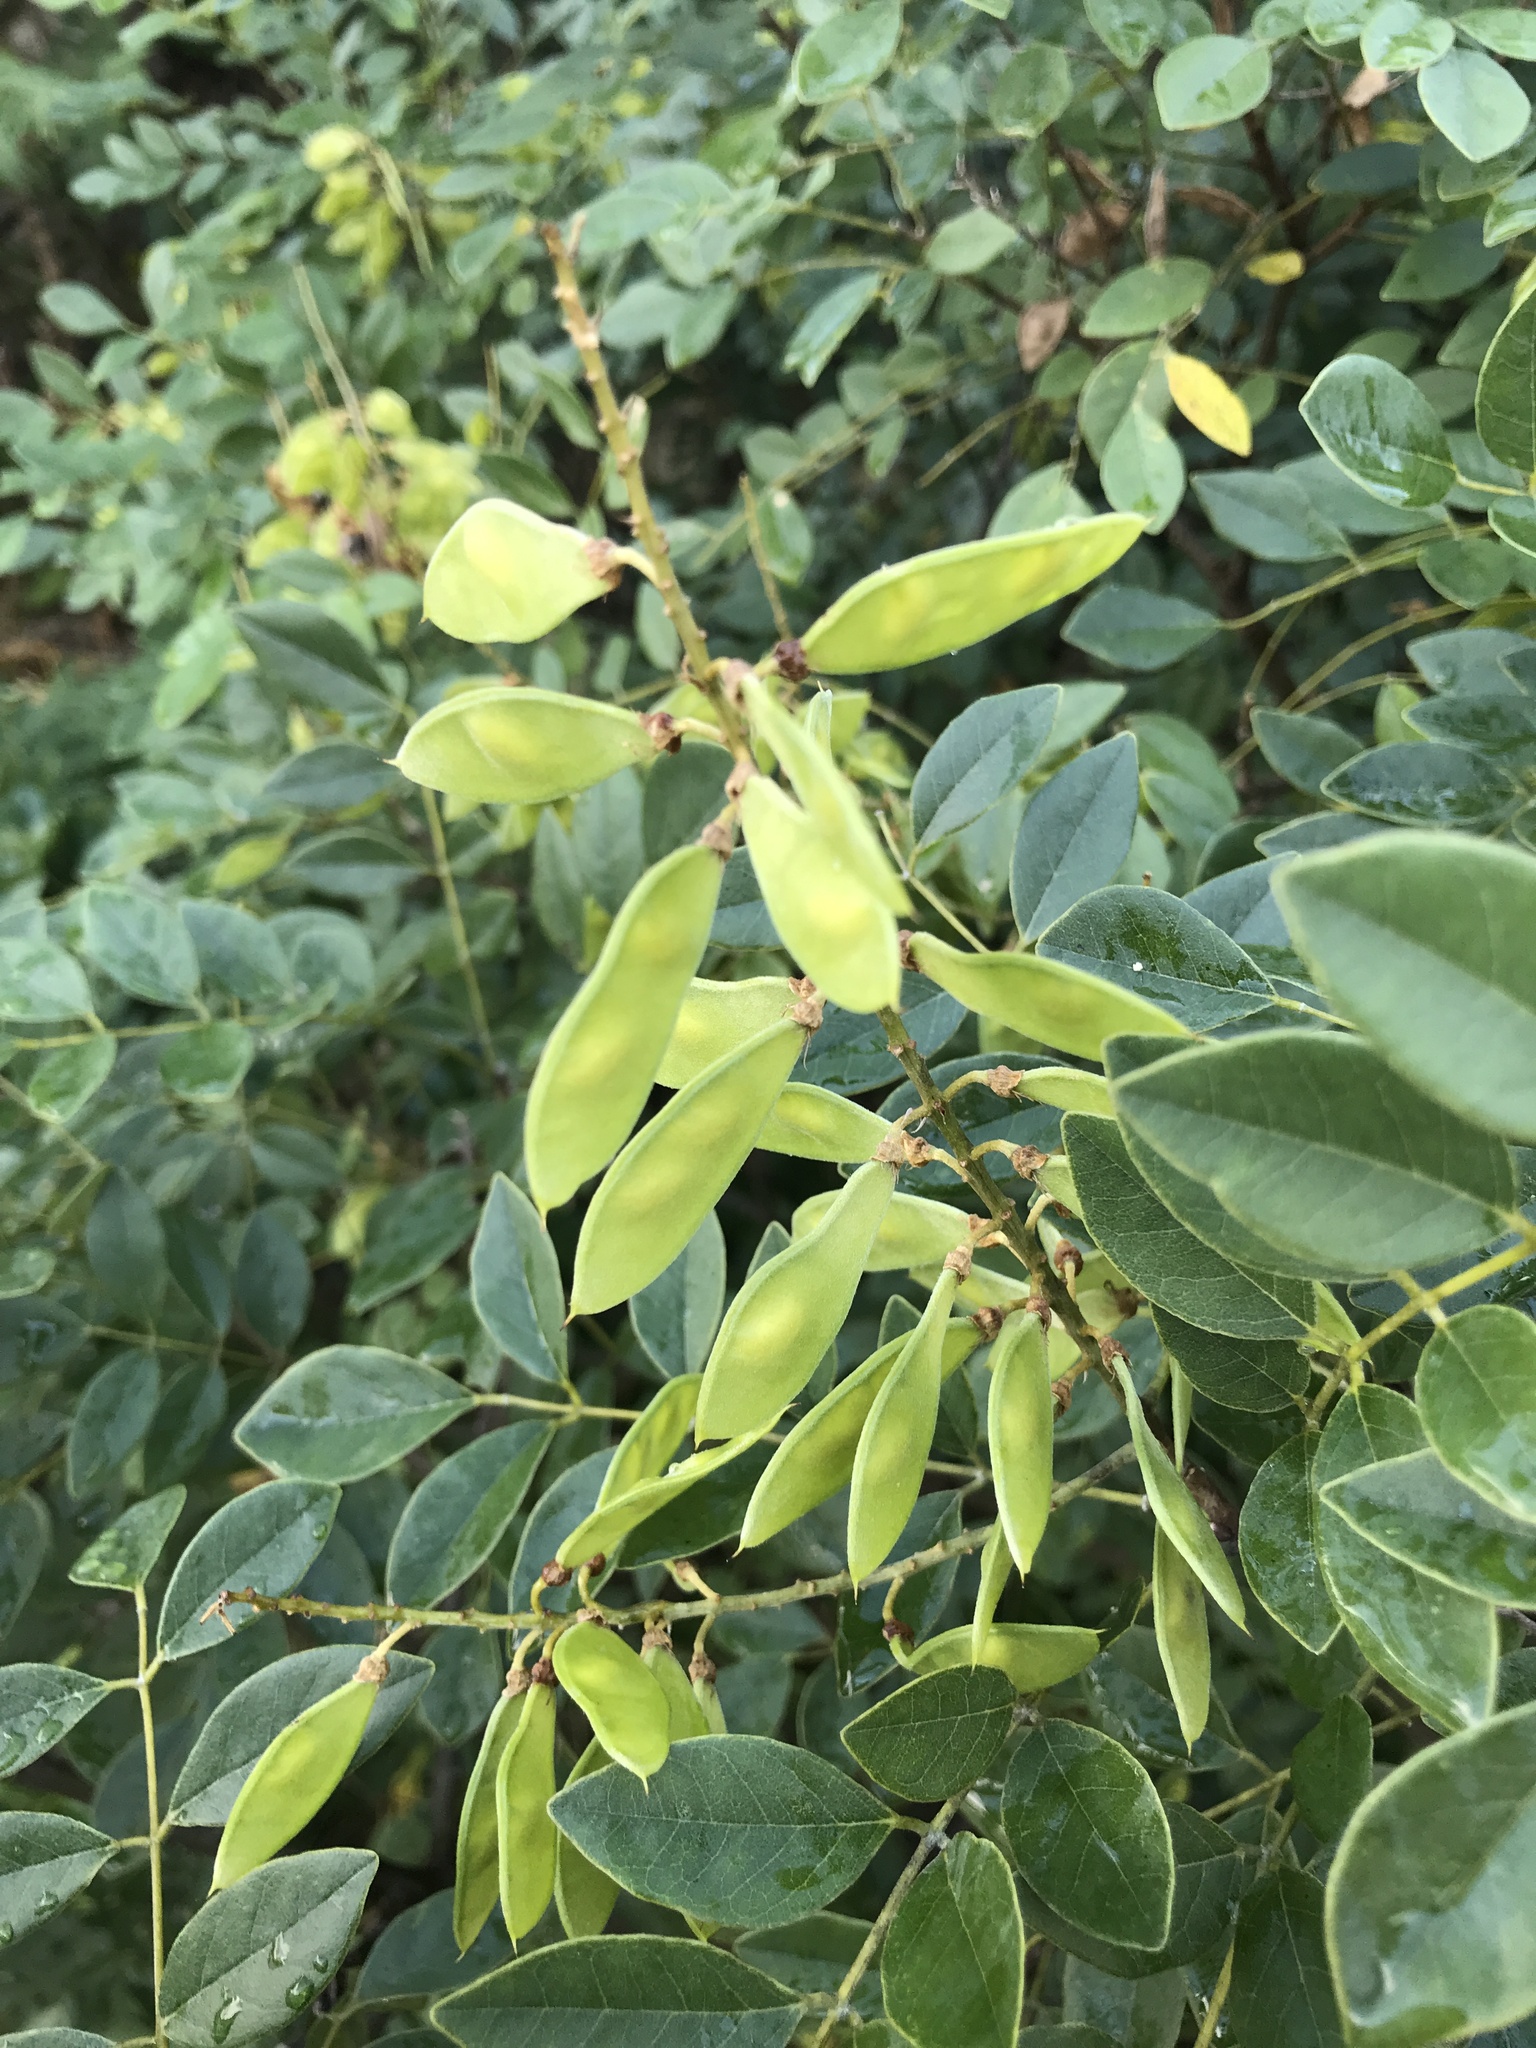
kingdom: Plantae
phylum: Tracheophyta
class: Magnoliopsida
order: Fabales
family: Fabaceae
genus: Maackia
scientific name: Maackia tashiroi
